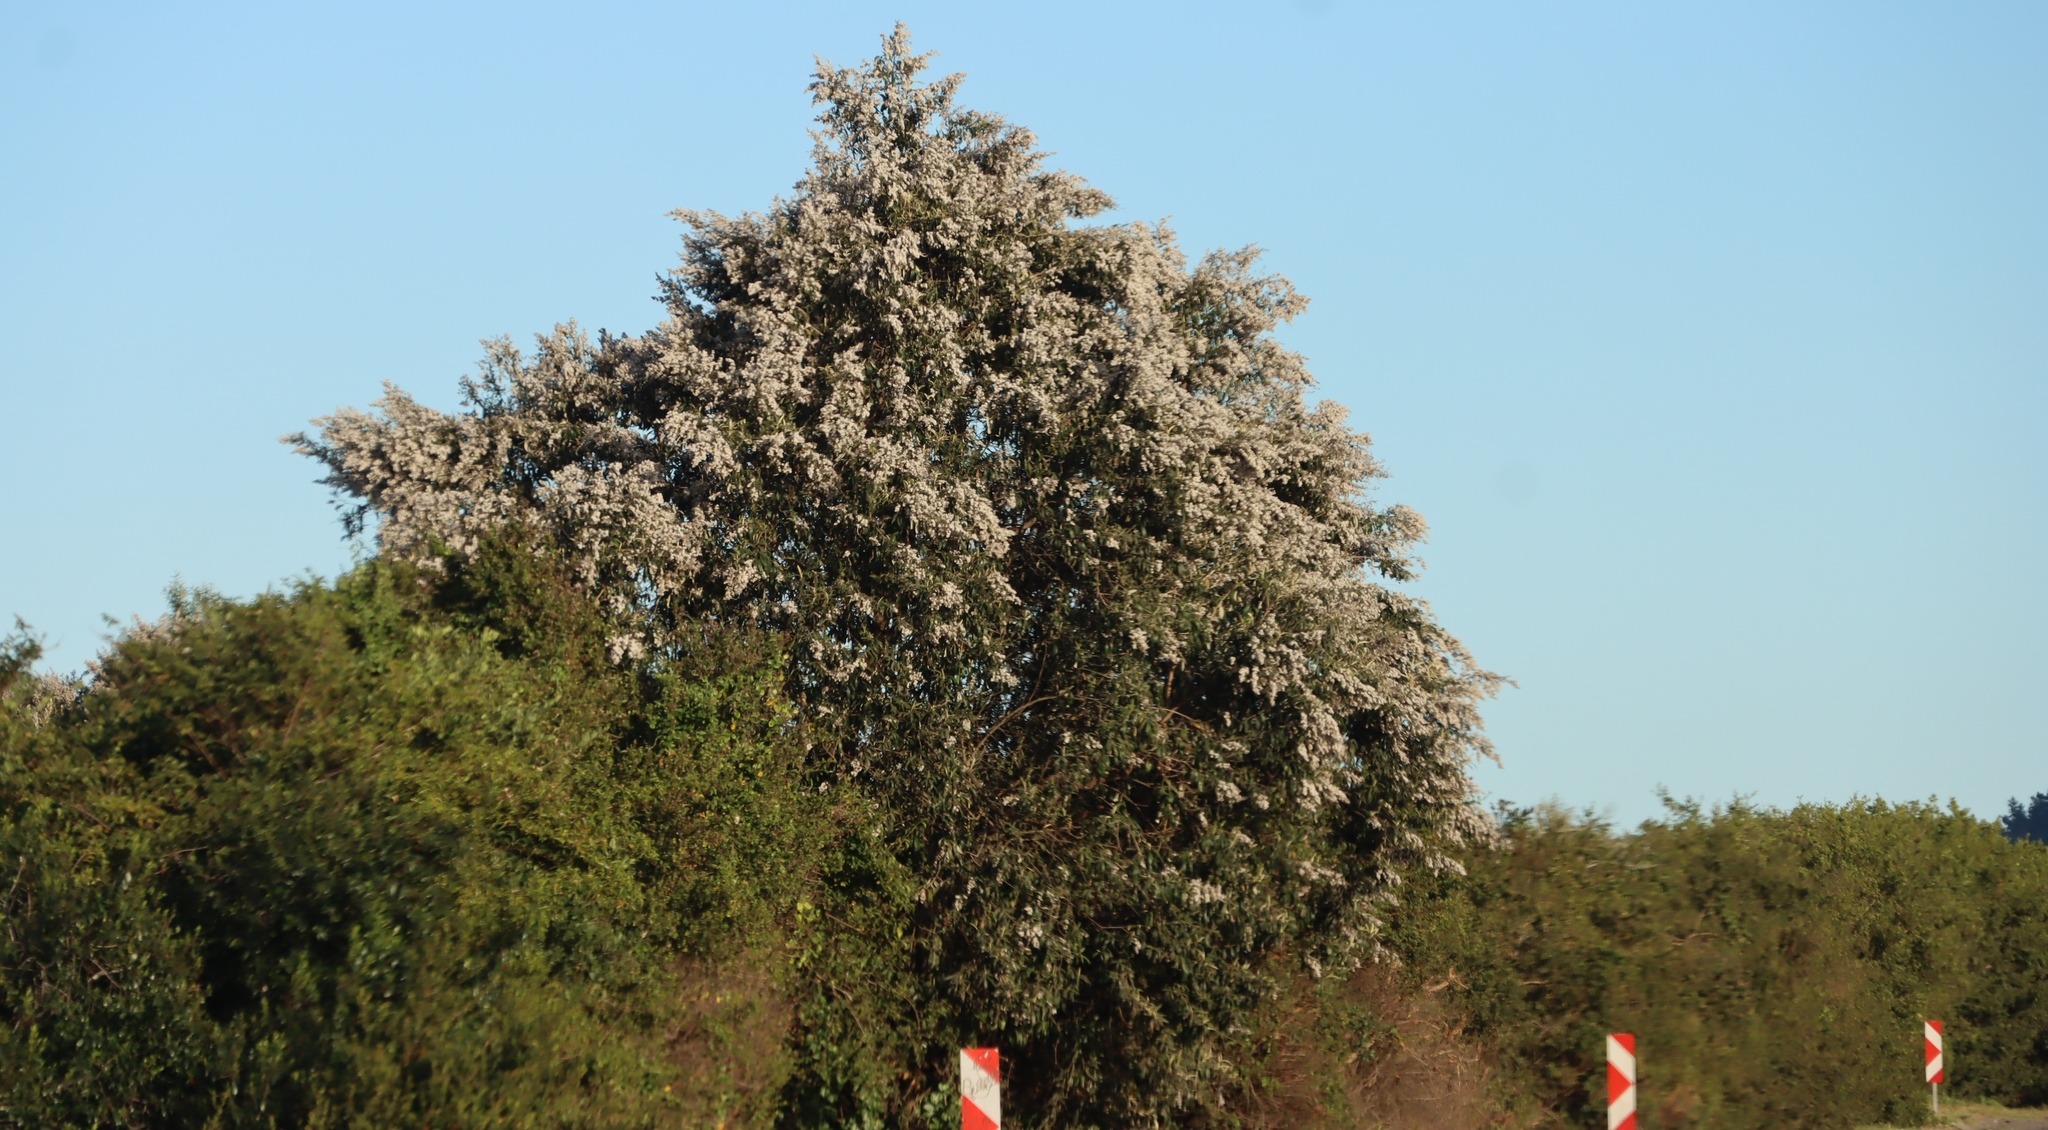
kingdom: Plantae
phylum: Tracheophyta
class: Magnoliopsida
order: Asterales
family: Asteraceae
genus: Tarchonanthus
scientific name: Tarchonanthus littoralis
